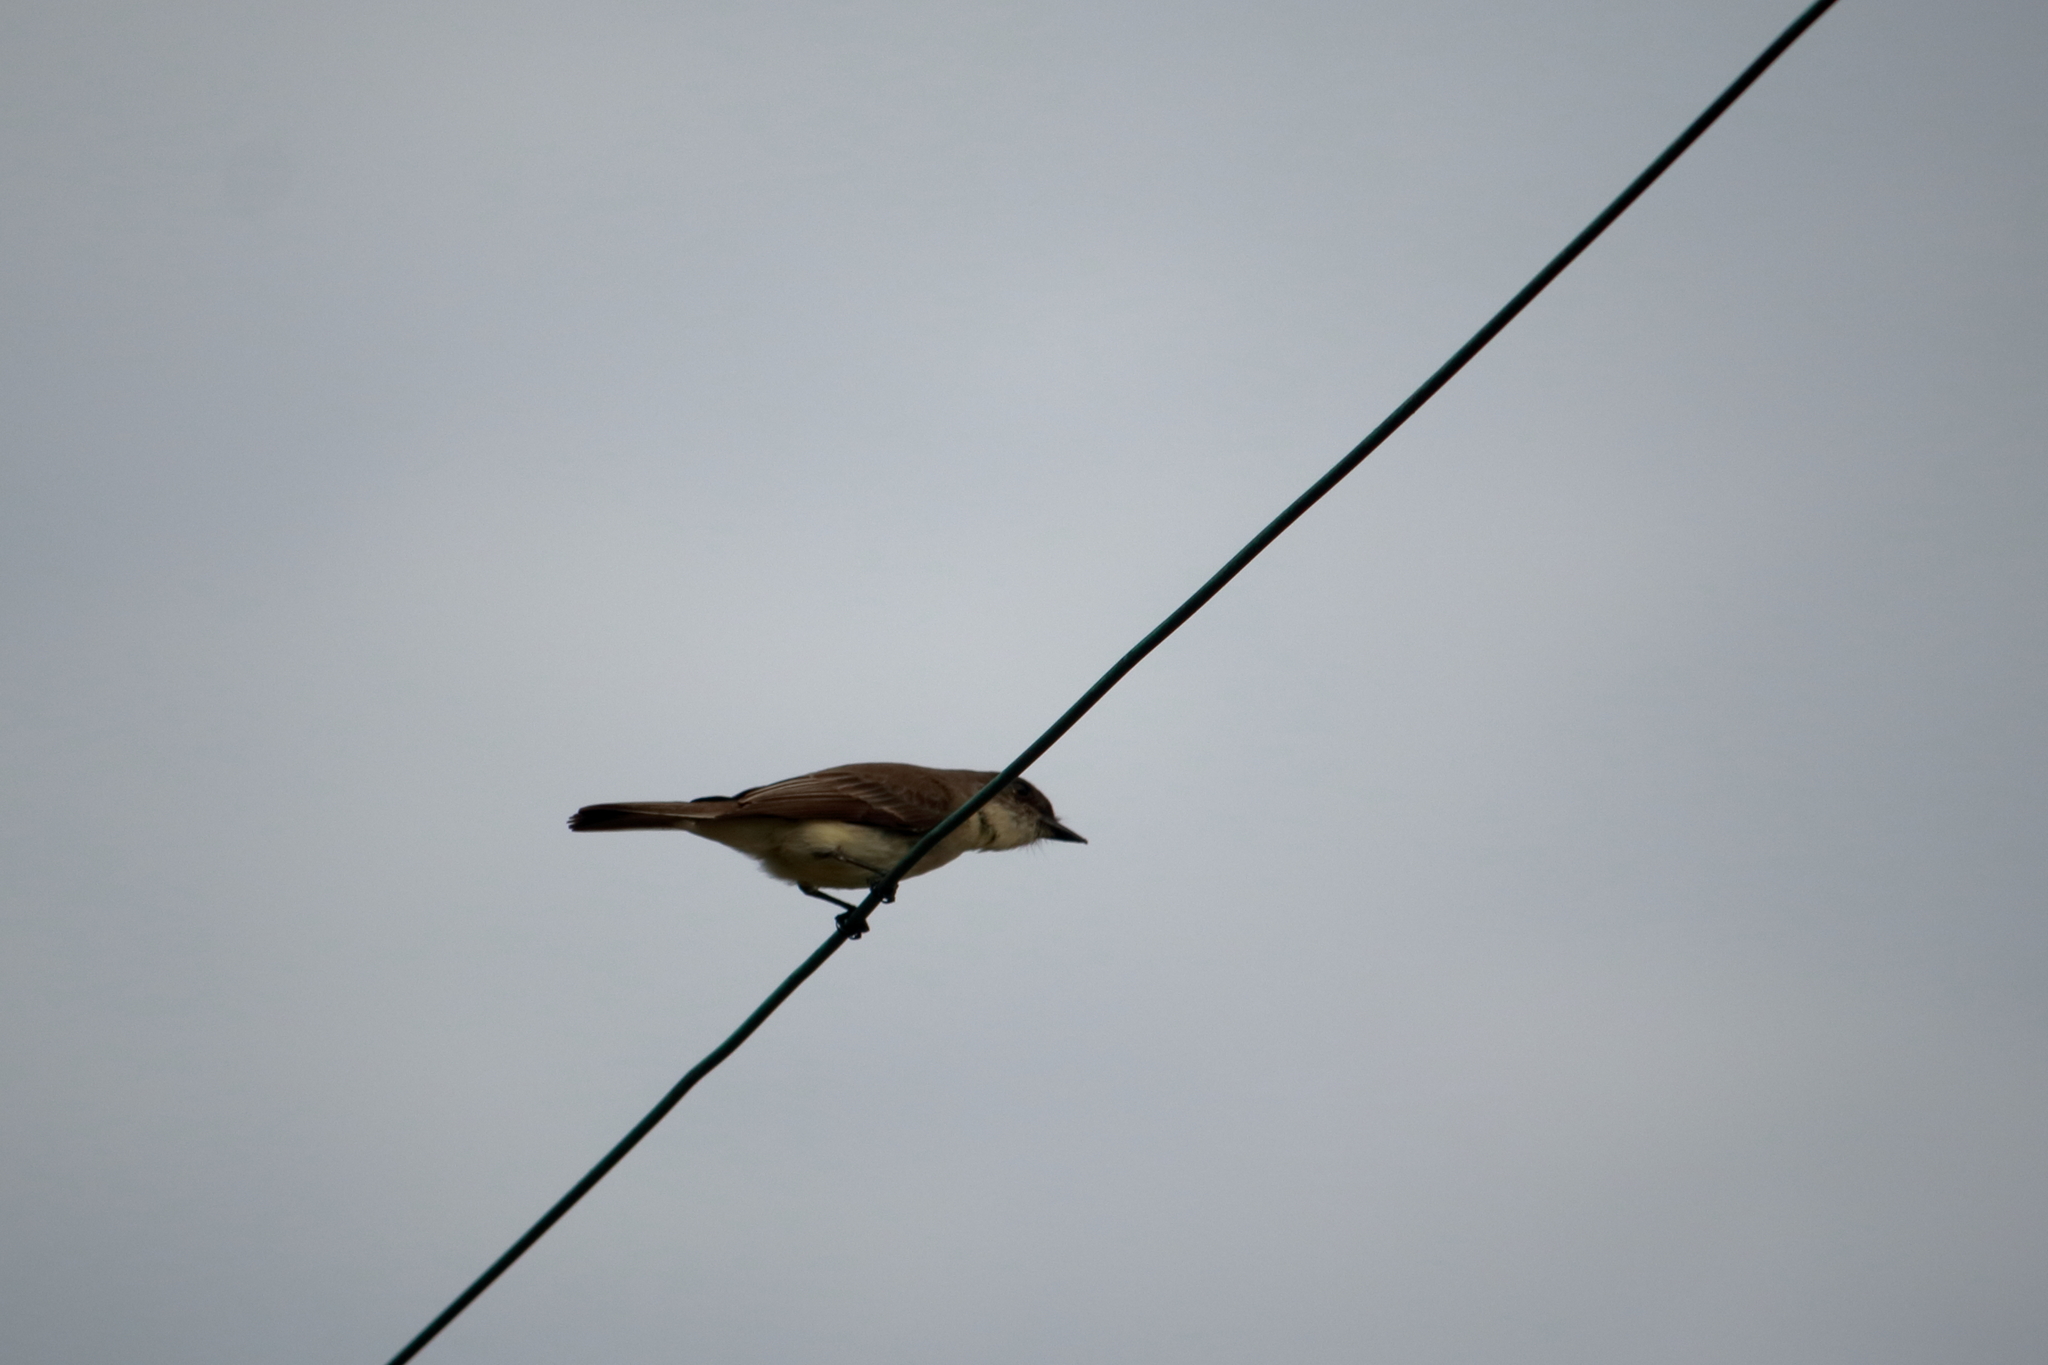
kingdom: Animalia
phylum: Chordata
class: Aves
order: Passeriformes
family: Tyrannidae
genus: Sayornis
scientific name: Sayornis phoebe
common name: Eastern phoebe
